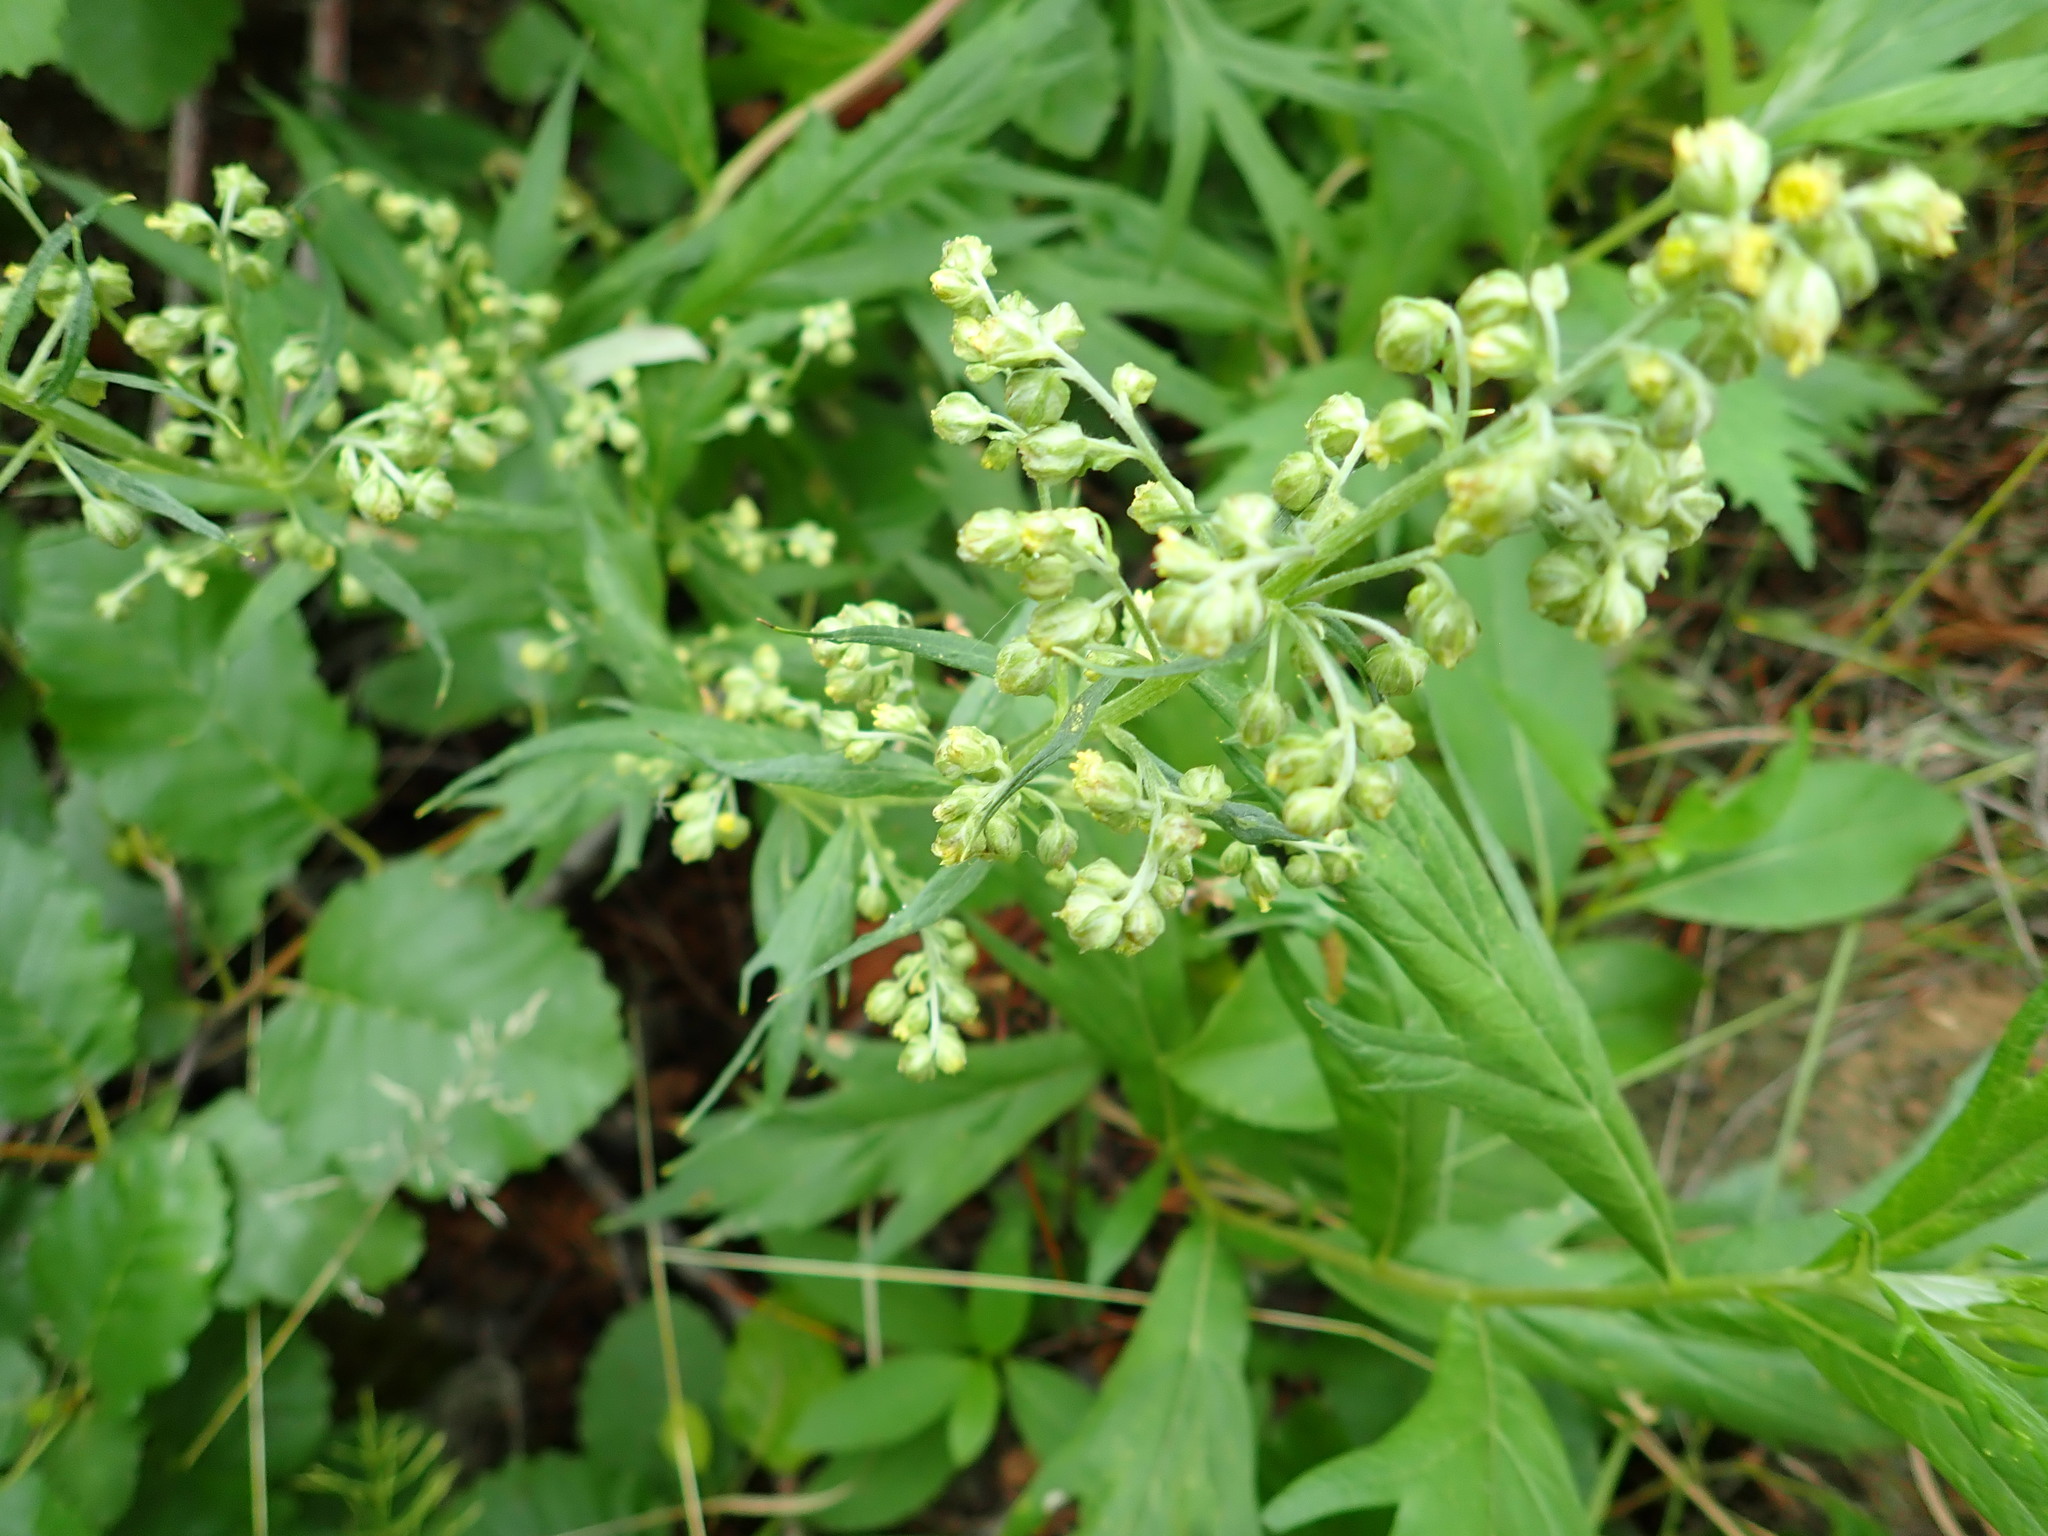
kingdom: Plantae
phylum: Tracheophyta
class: Magnoliopsida
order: Asterales
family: Asteraceae
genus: Artemisia
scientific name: Artemisia tilesii
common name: Aleutian mugwort
